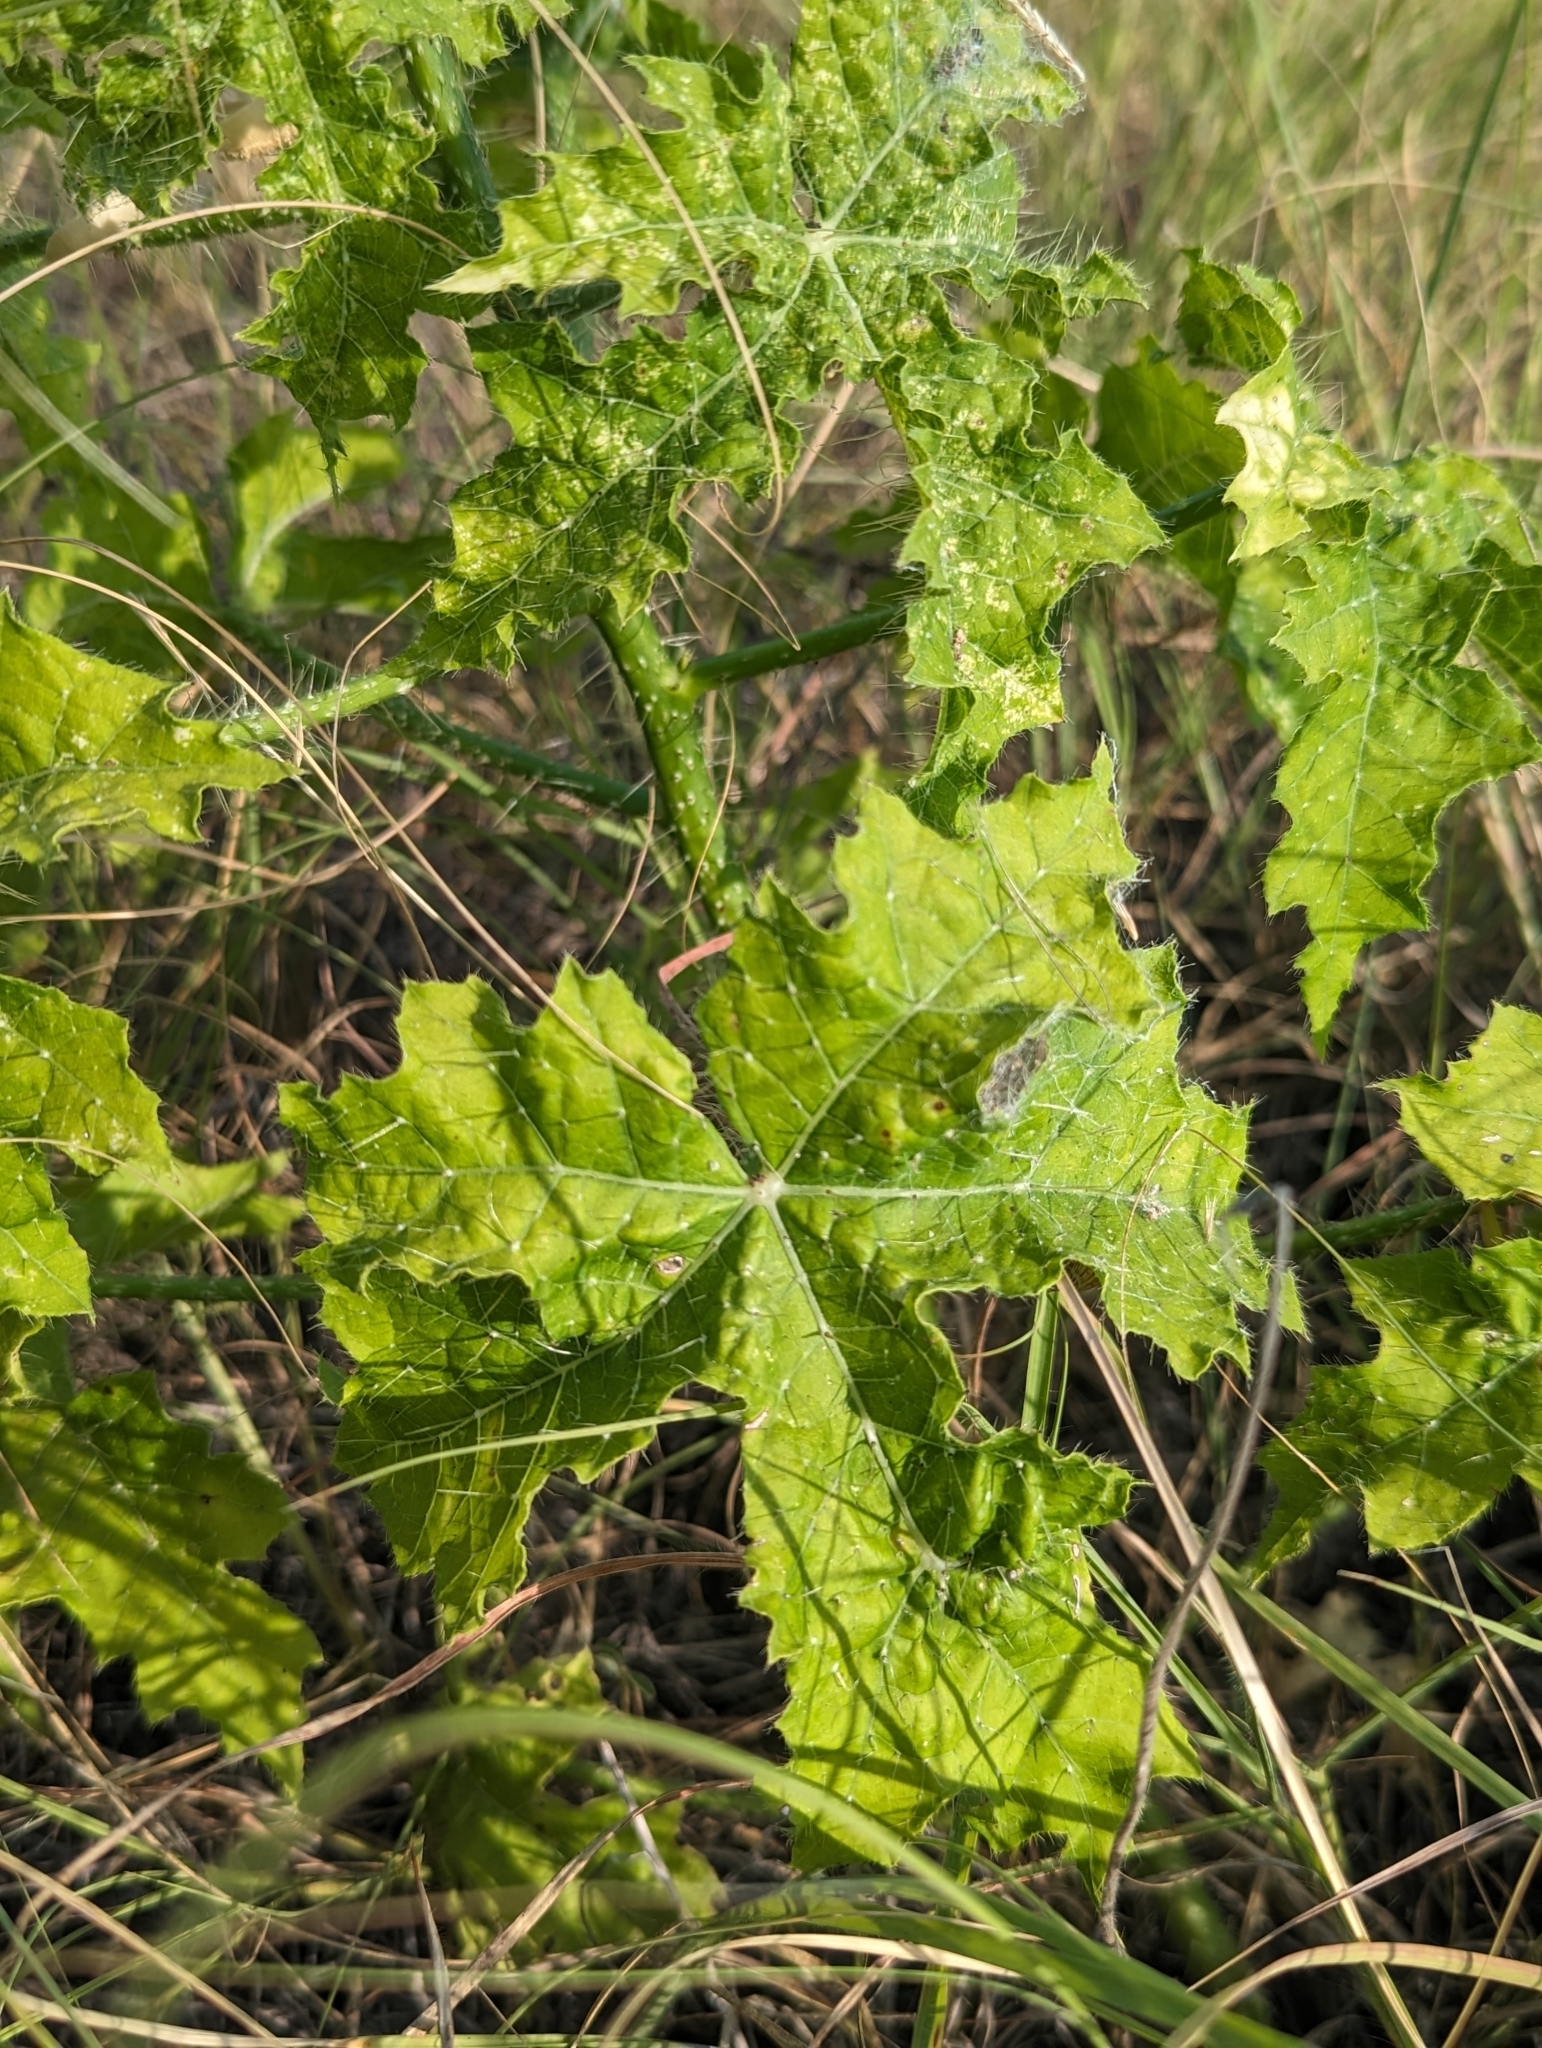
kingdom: Plantae
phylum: Tracheophyta
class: Magnoliopsida
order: Malpighiales
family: Euphorbiaceae
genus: Cnidoscolus
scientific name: Cnidoscolus texanus
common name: Texas bull-nettle
